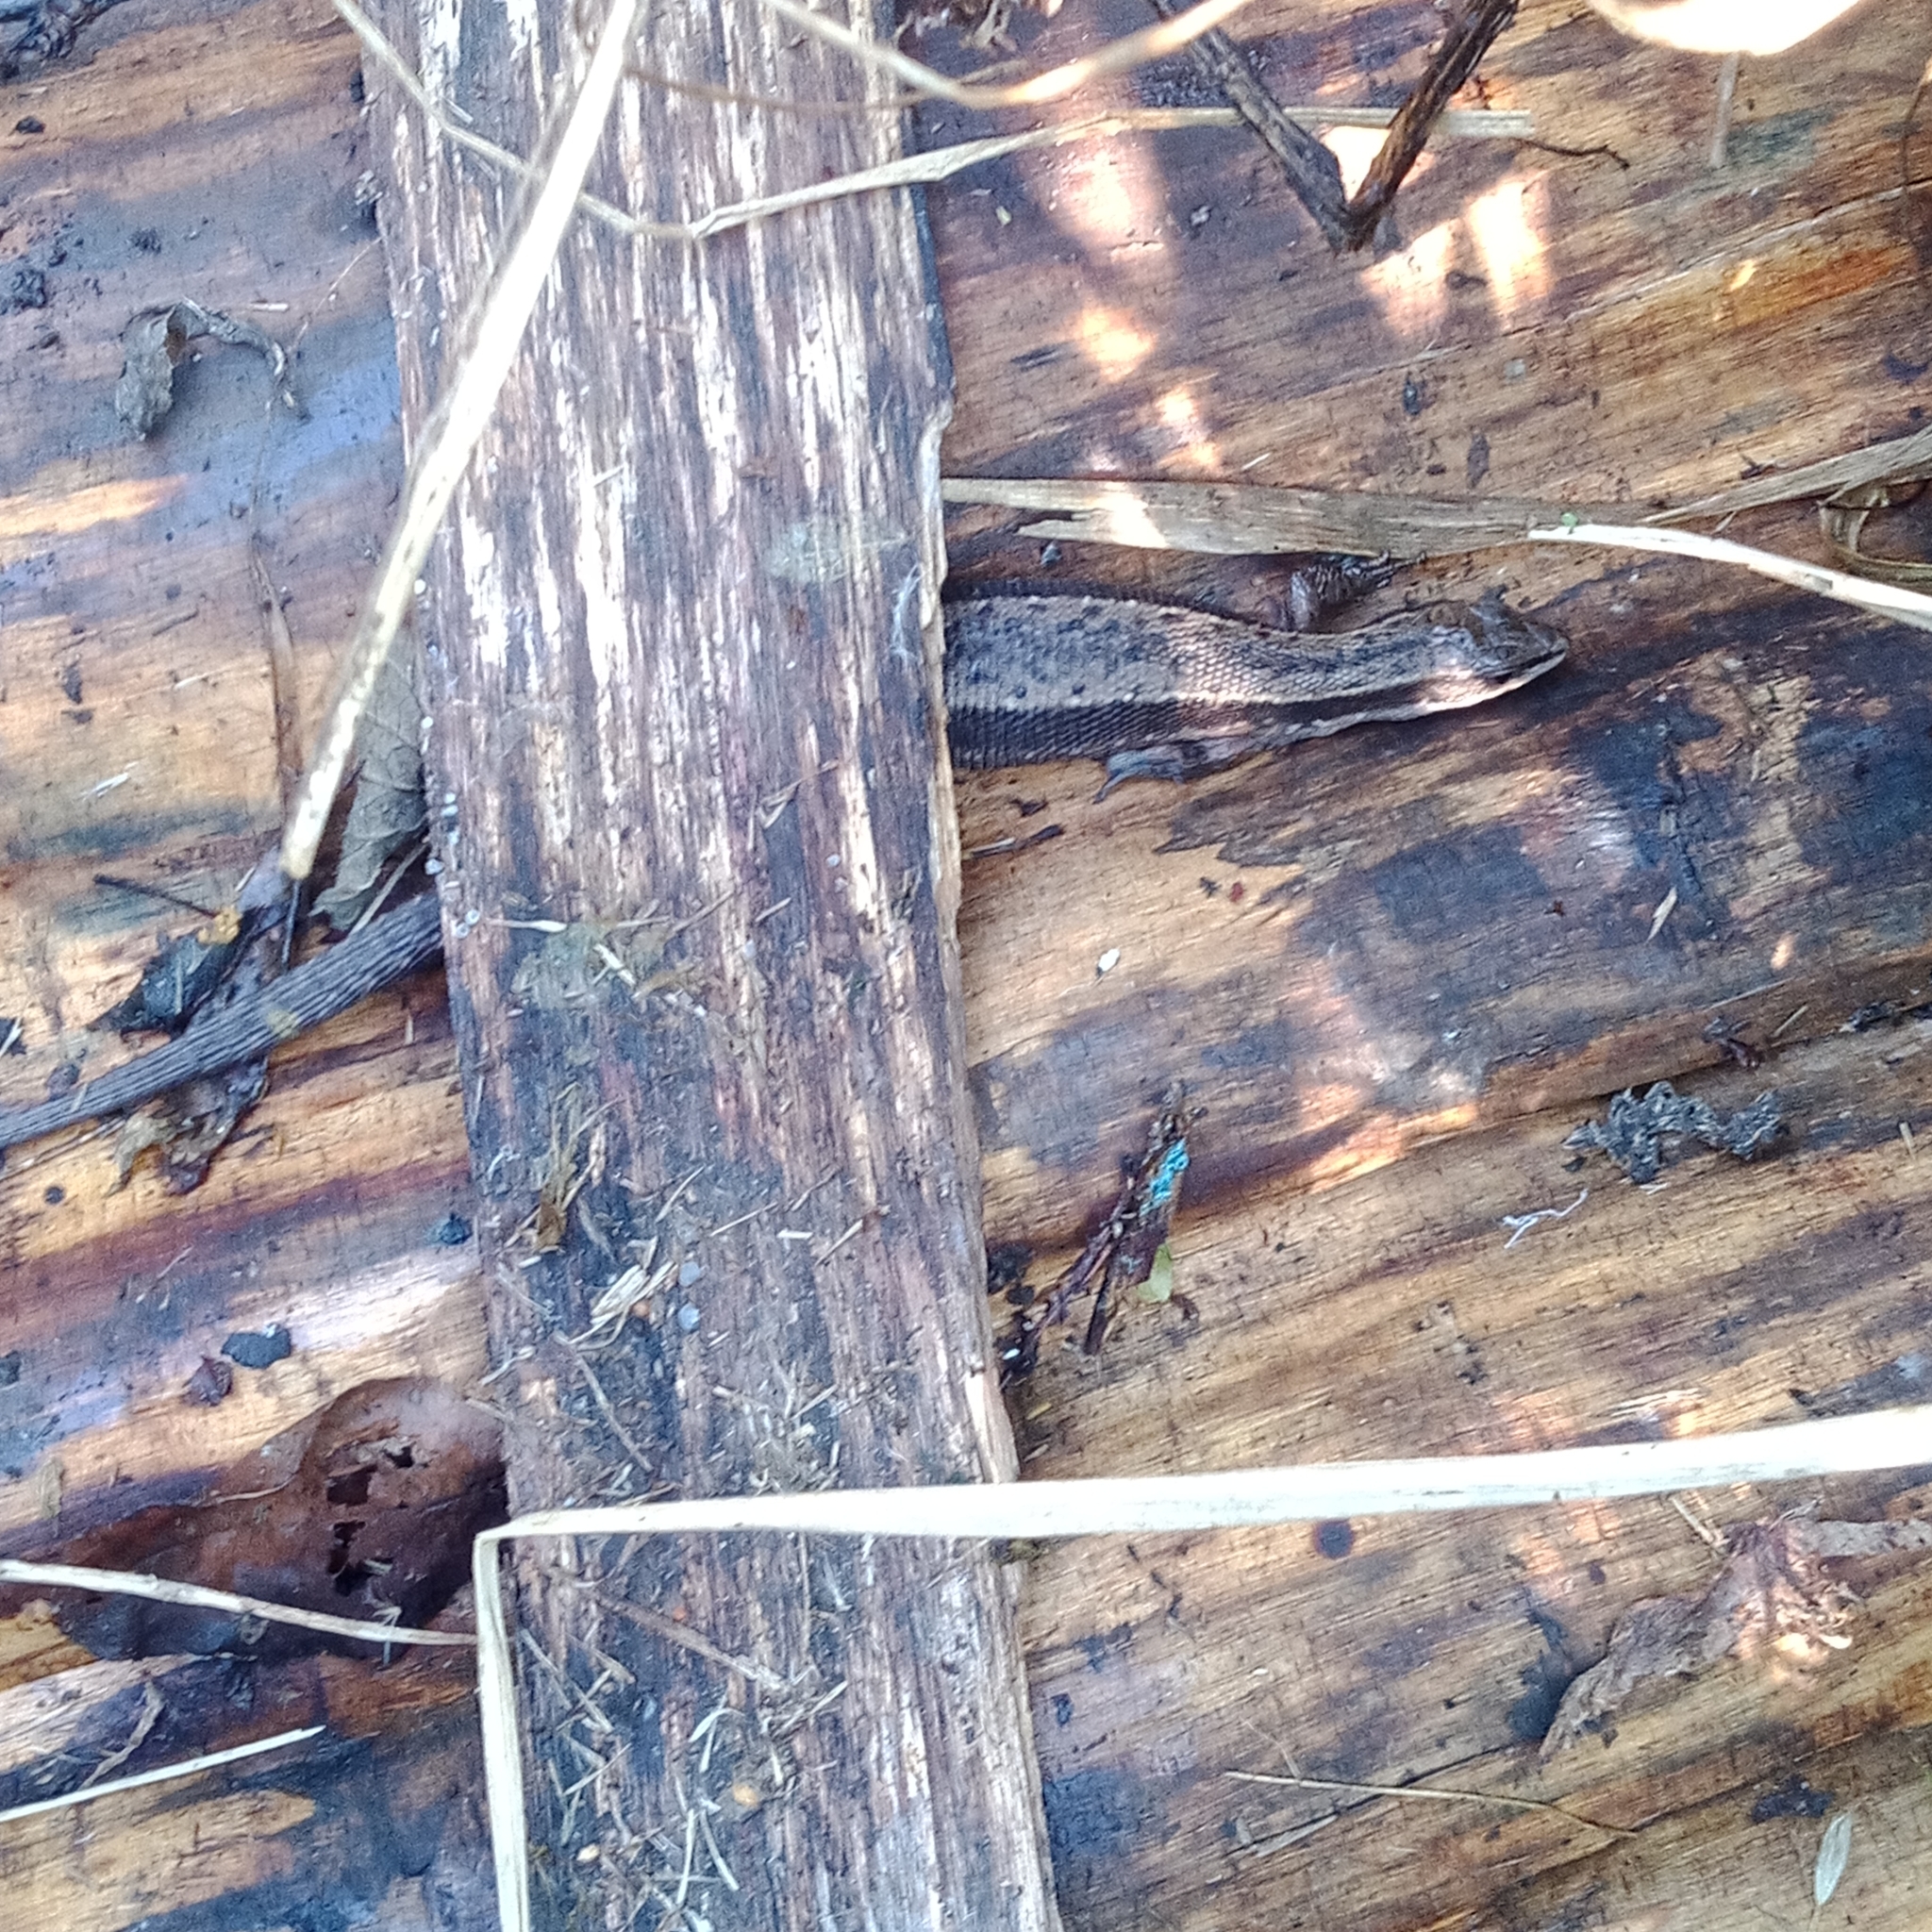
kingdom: Animalia
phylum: Chordata
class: Squamata
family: Lacertidae
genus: Zootoca
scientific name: Zootoca vivipara
